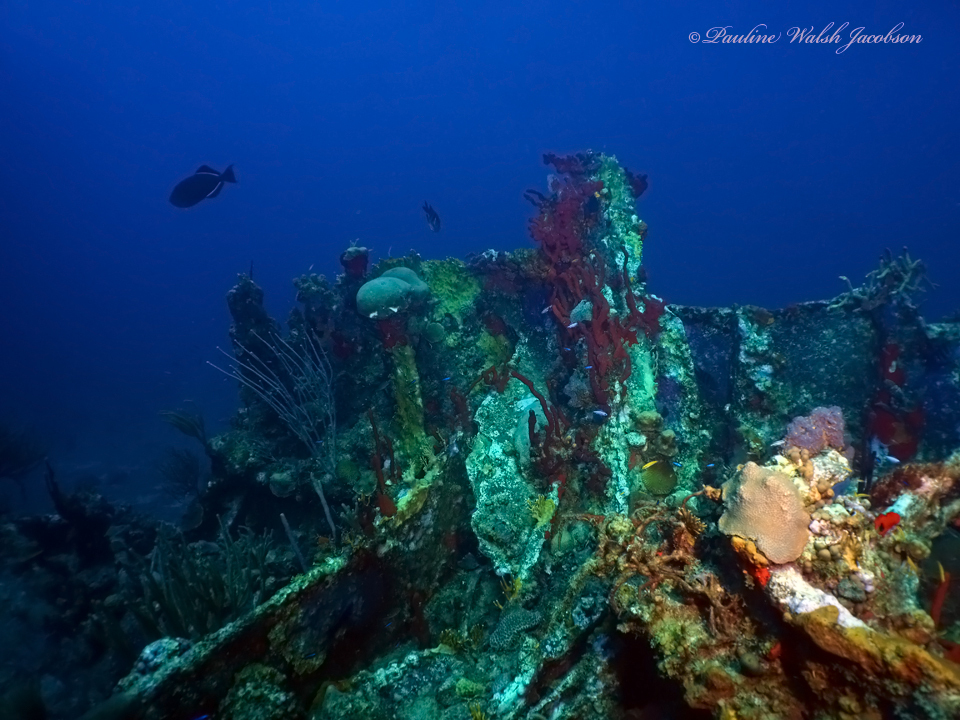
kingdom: Animalia
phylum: Chordata
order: Tetraodontiformes
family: Balistidae
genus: Melichthys
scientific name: Melichthys niger
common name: Black durgon
